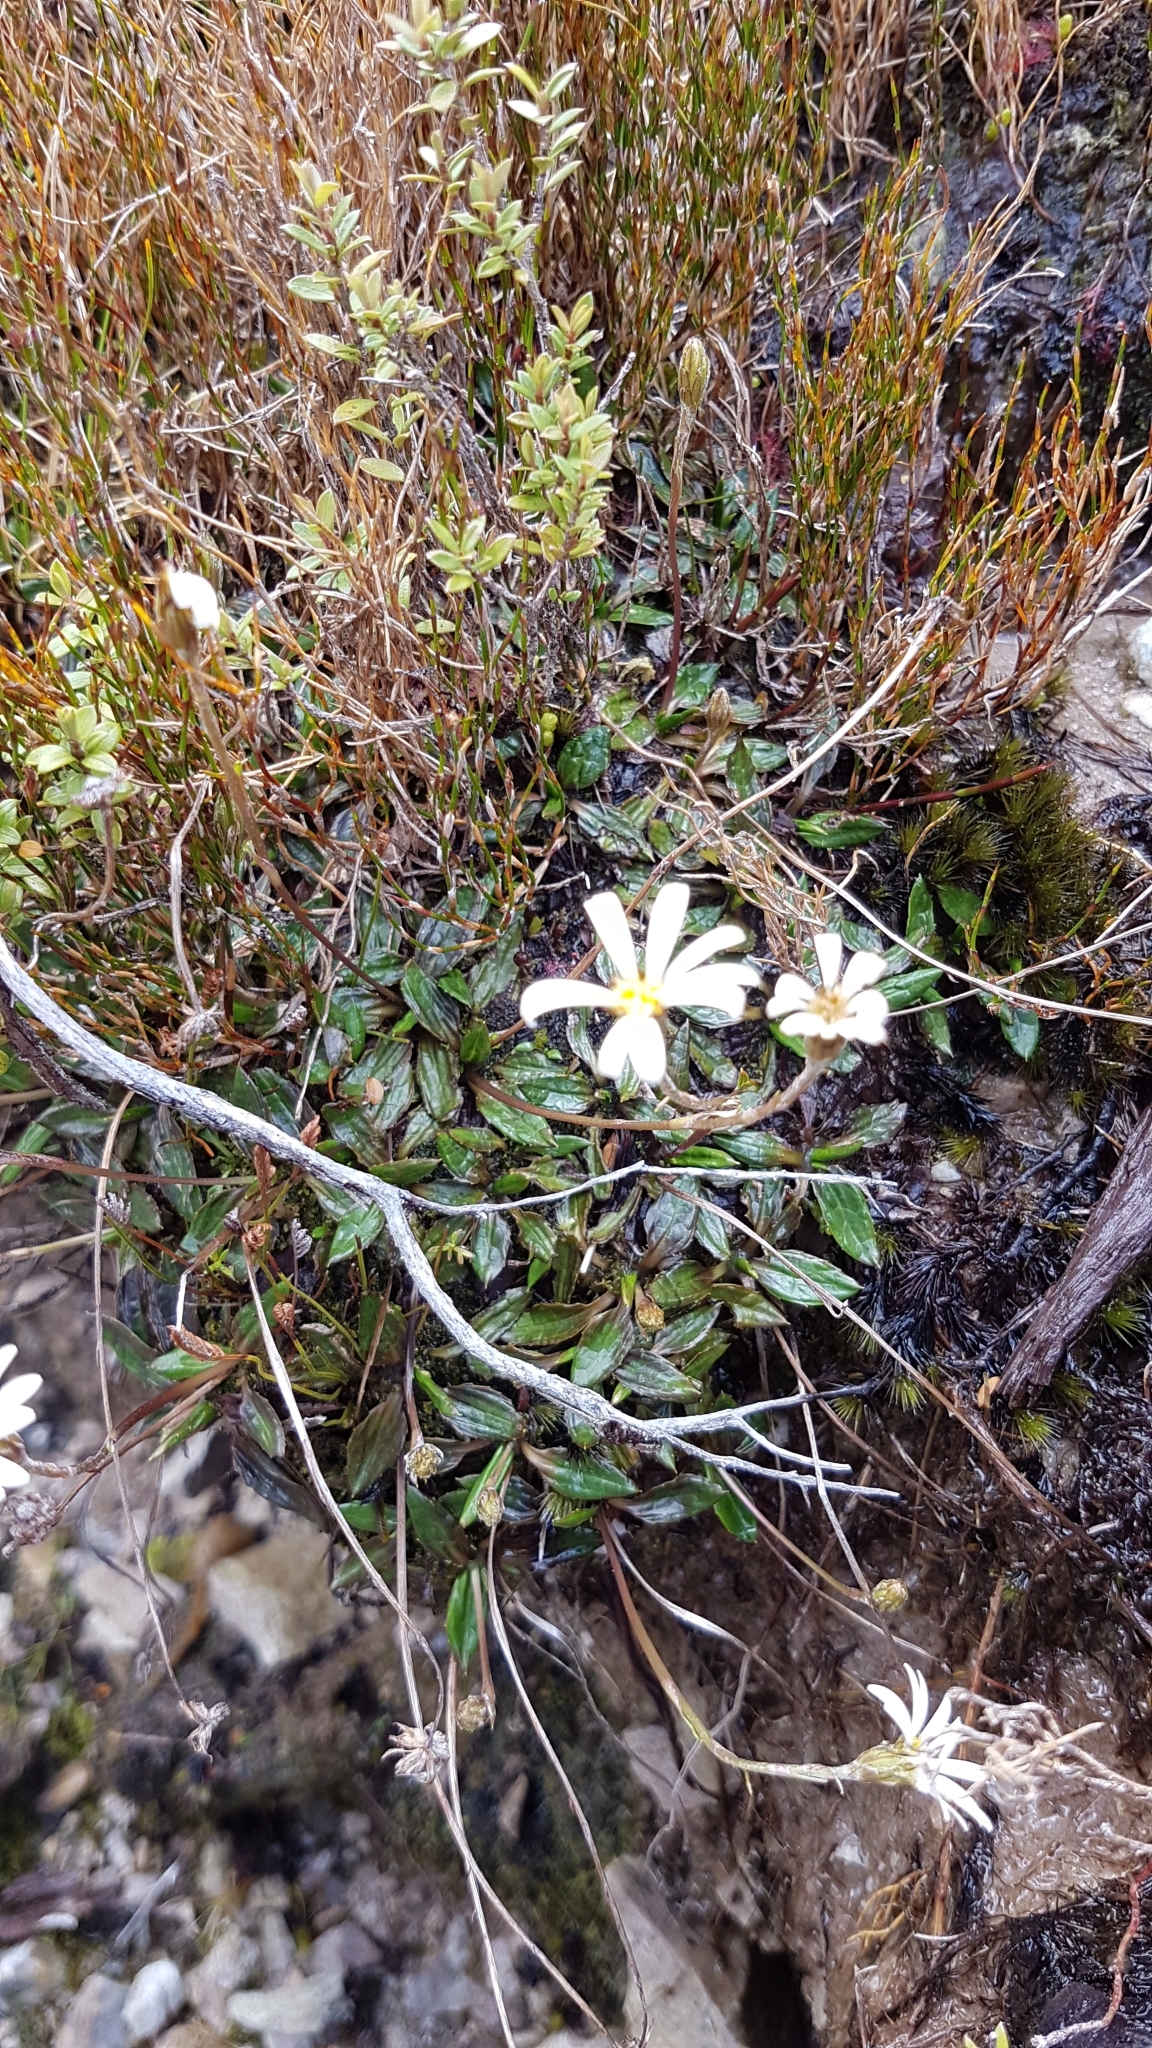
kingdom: Plantae
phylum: Tracheophyta
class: Magnoliopsida
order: Asterales
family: Asteraceae
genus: Celmisia
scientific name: Celmisia parva
